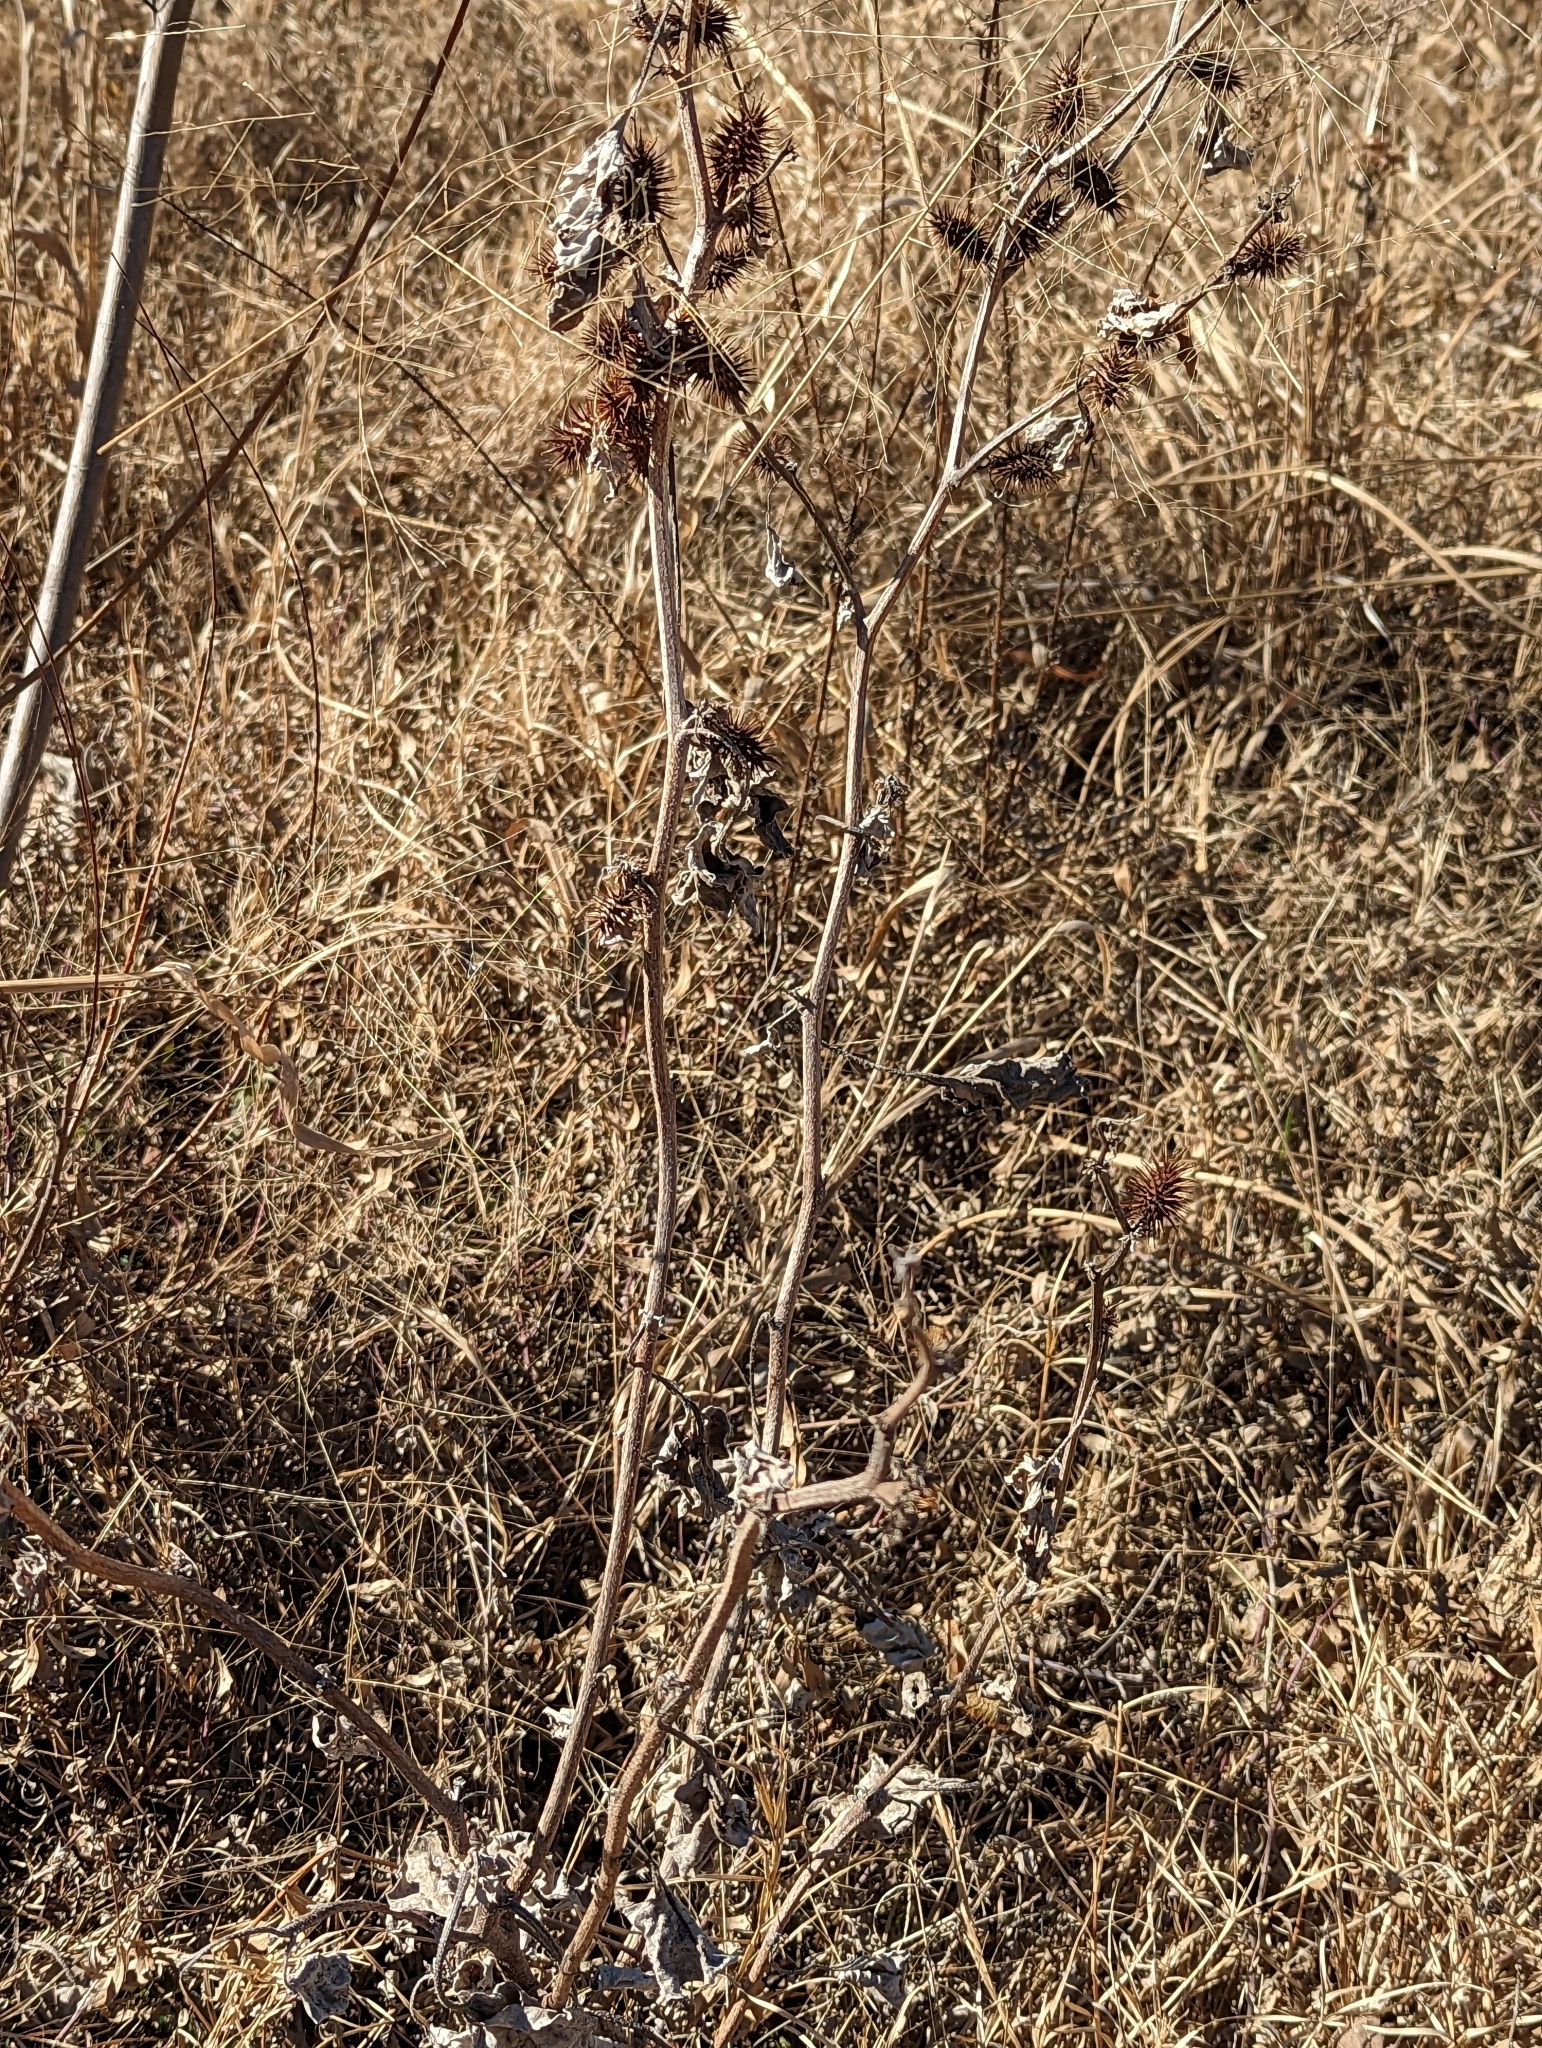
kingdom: Plantae
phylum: Tracheophyta
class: Magnoliopsida
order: Asterales
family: Asteraceae
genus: Xanthium
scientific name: Xanthium strumarium
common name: Rough cocklebur
